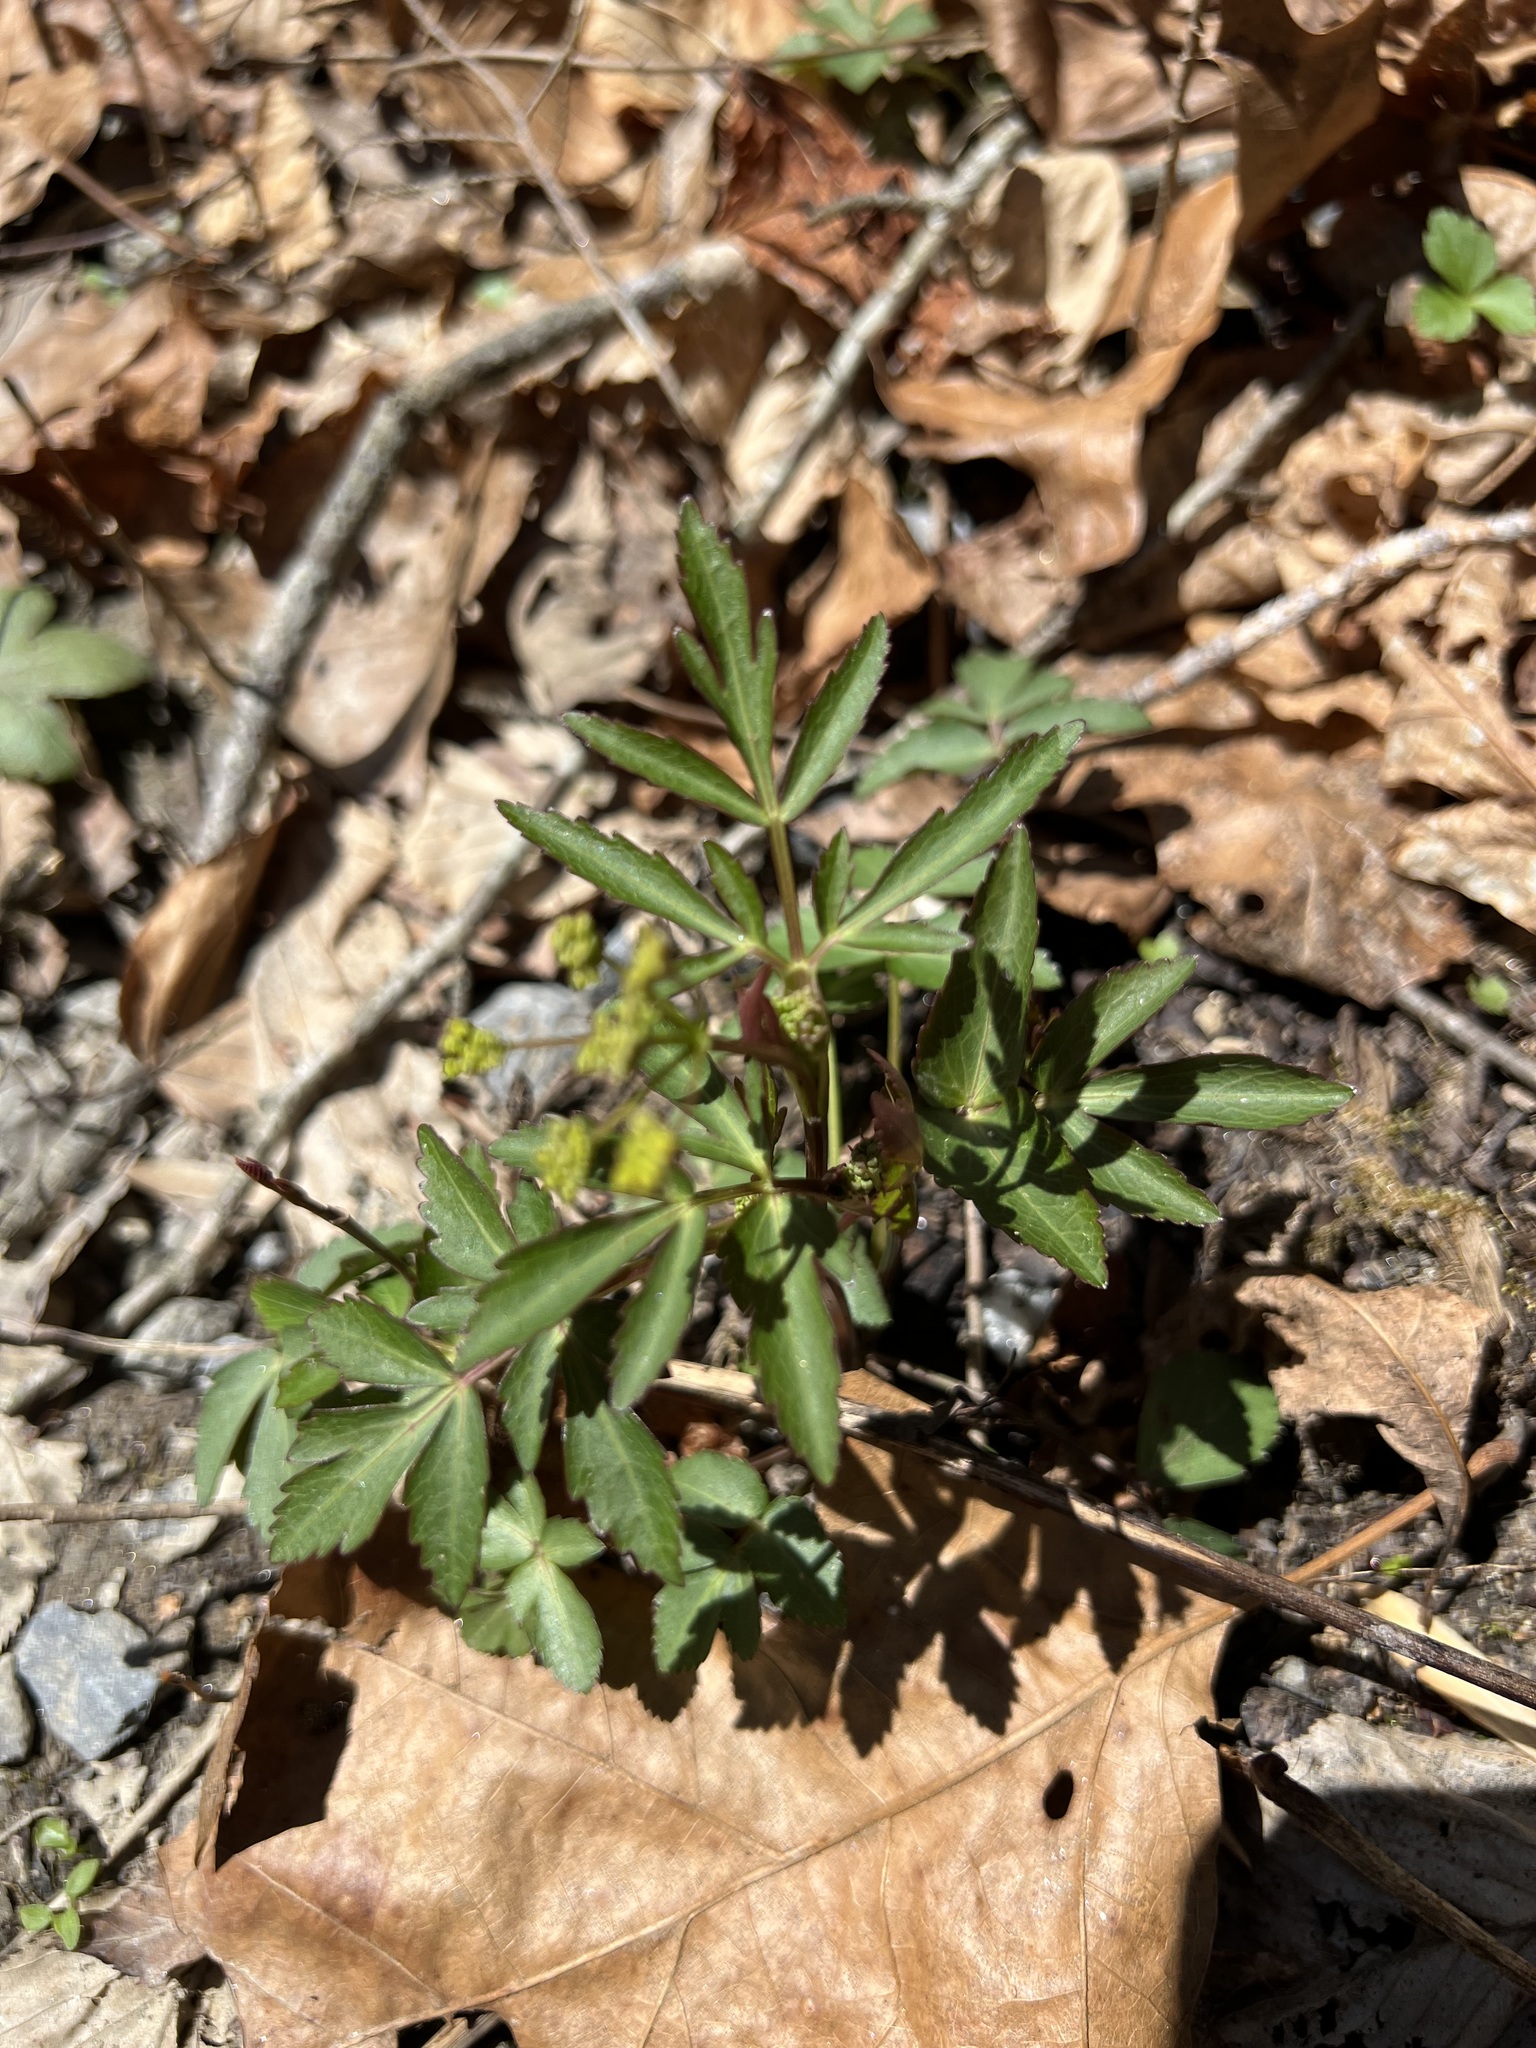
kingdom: Plantae
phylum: Tracheophyta
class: Magnoliopsida
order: Apiales
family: Apiaceae
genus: Zizia
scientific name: Zizia aurea
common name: Golden alexanders
